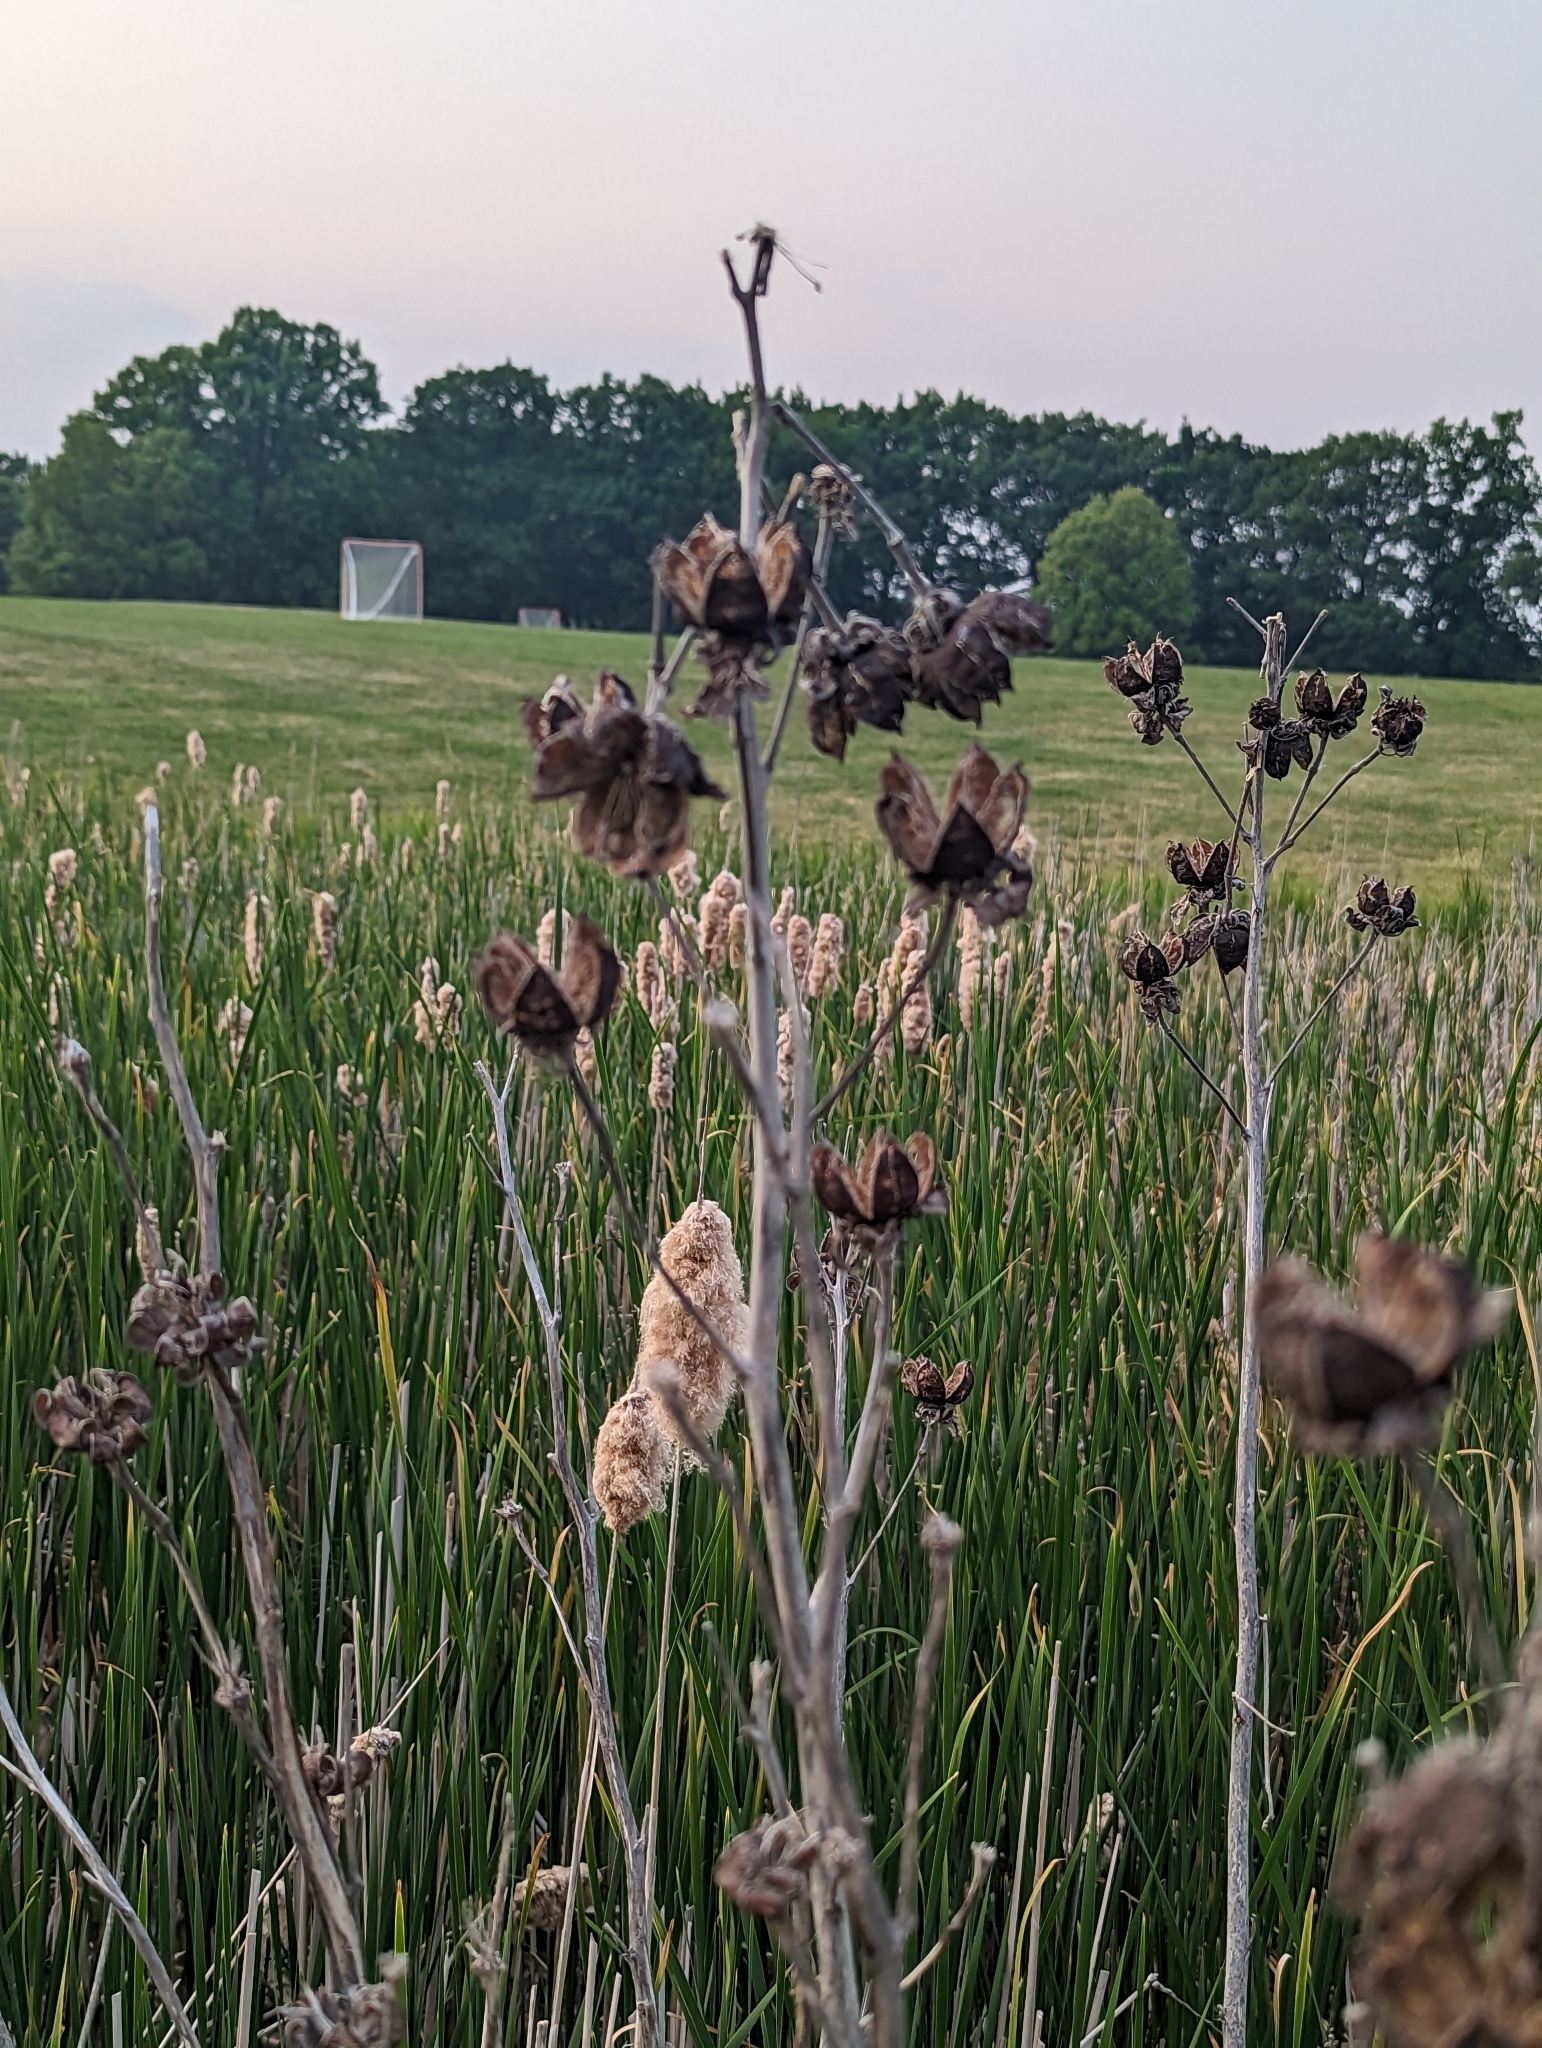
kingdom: Plantae
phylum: Tracheophyta
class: Magnoliopsida
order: Malvales
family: Malvaceae
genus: Hibiscus
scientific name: Hibiscus moscheutos
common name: Common rose-mallow
